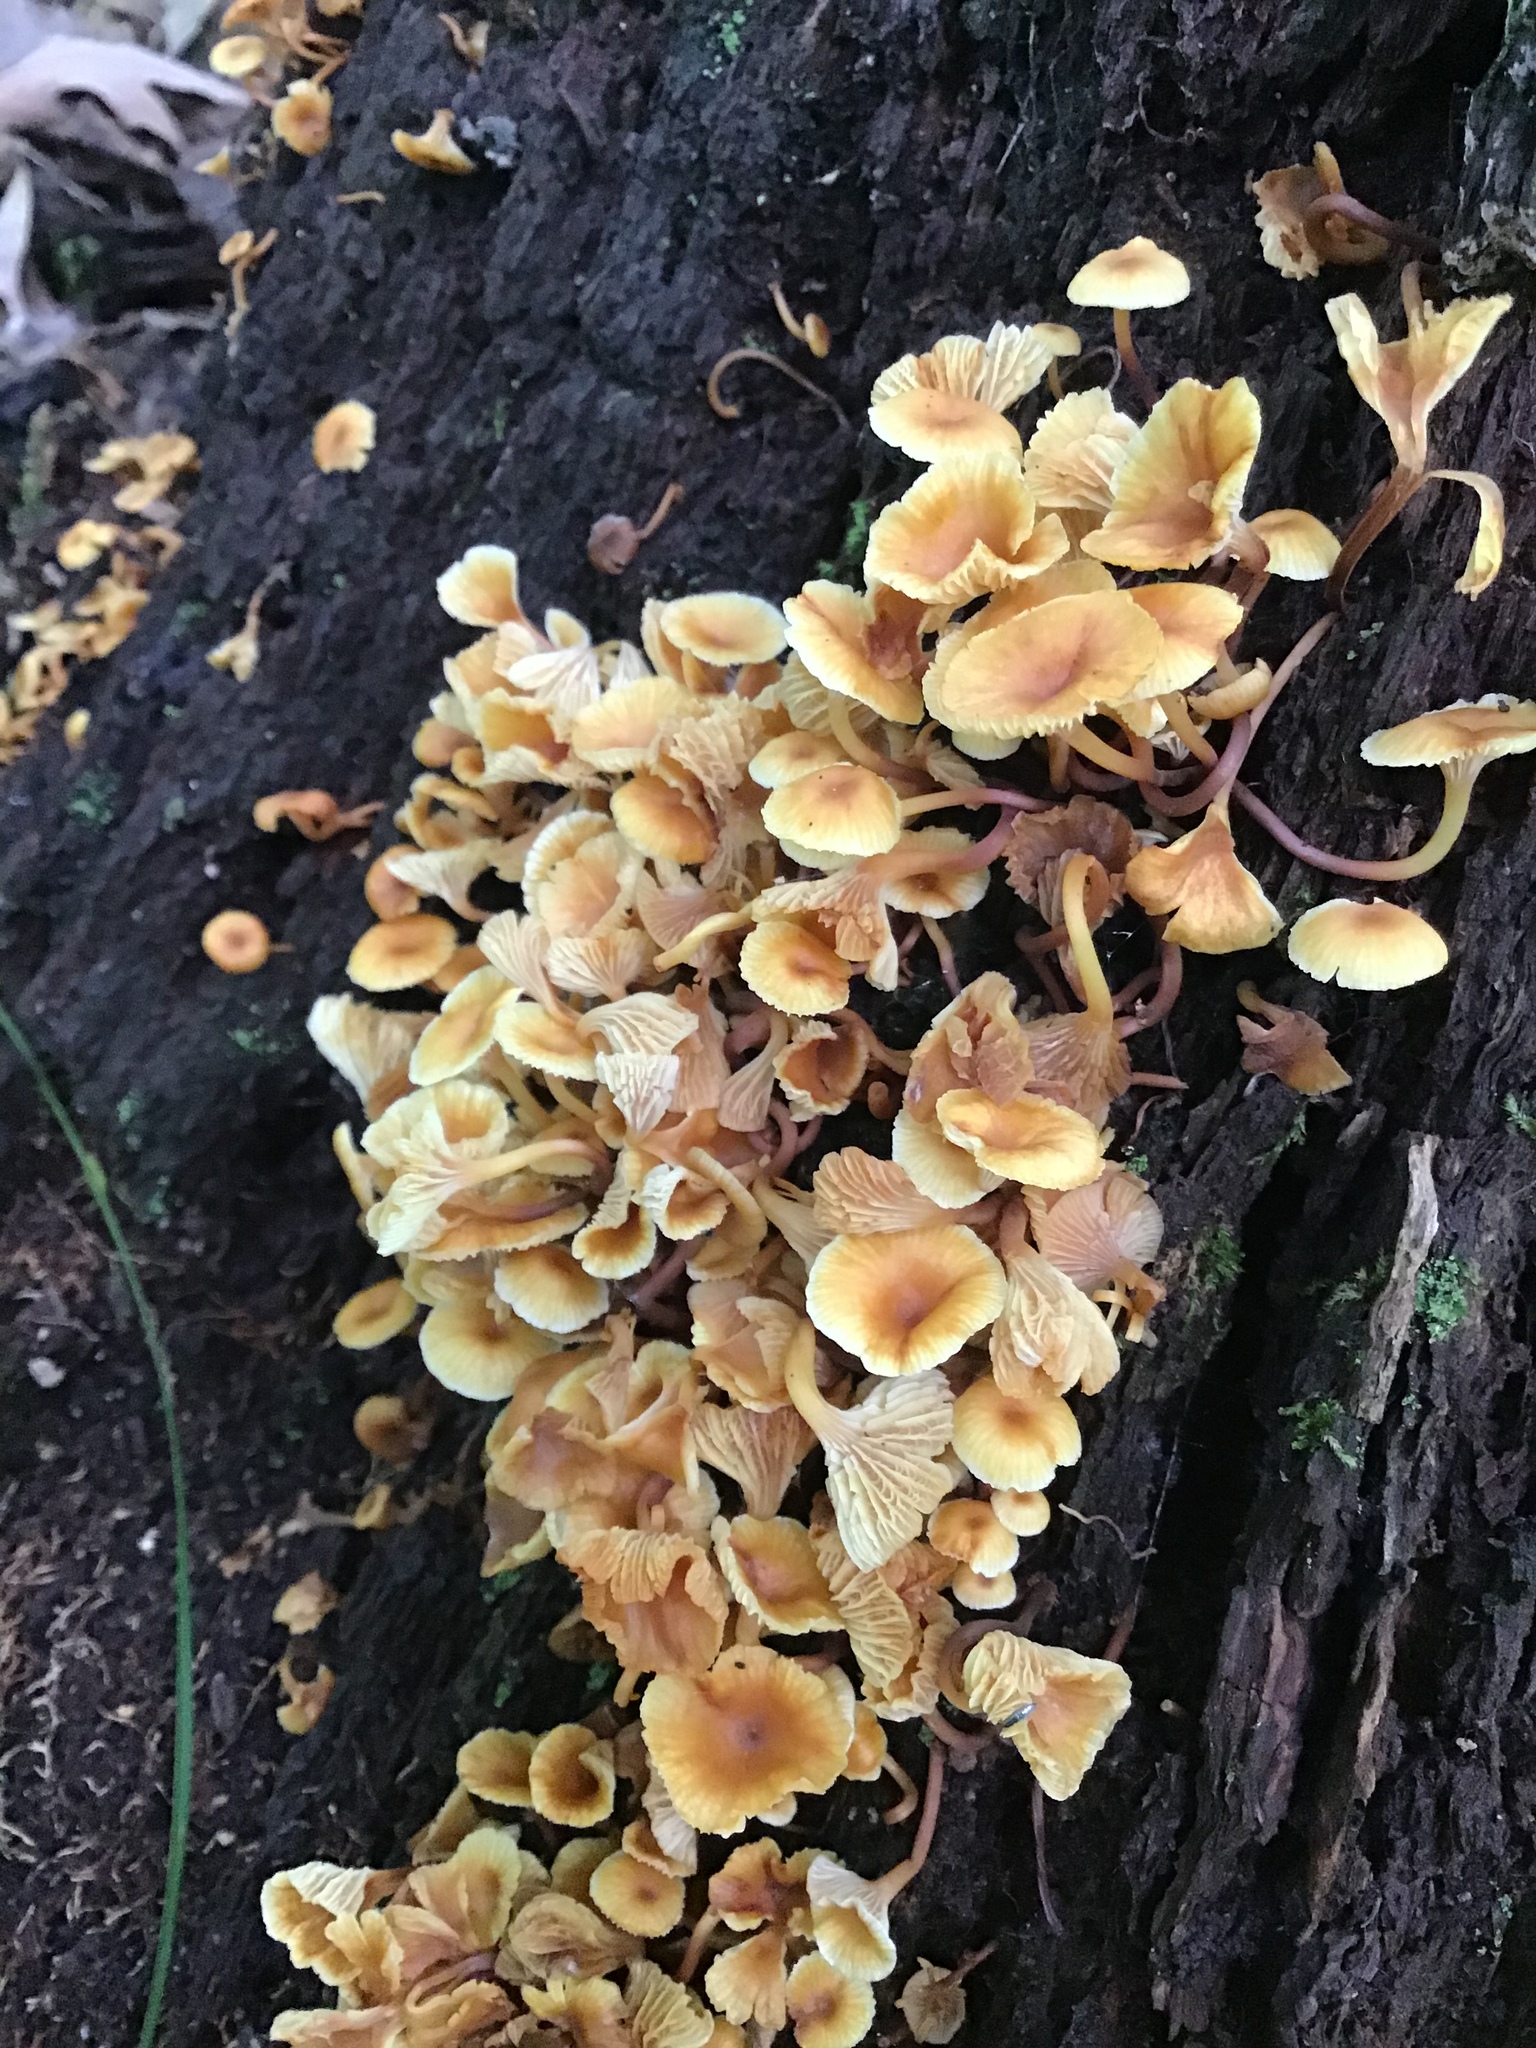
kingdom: Fungi
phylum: Basidiomycota
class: Agaricomycetes
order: Agaricales
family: Mycenaceae
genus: Xeromphalina
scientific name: Xeromphalina kauffmanii
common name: Cross-veined troop mushroom
